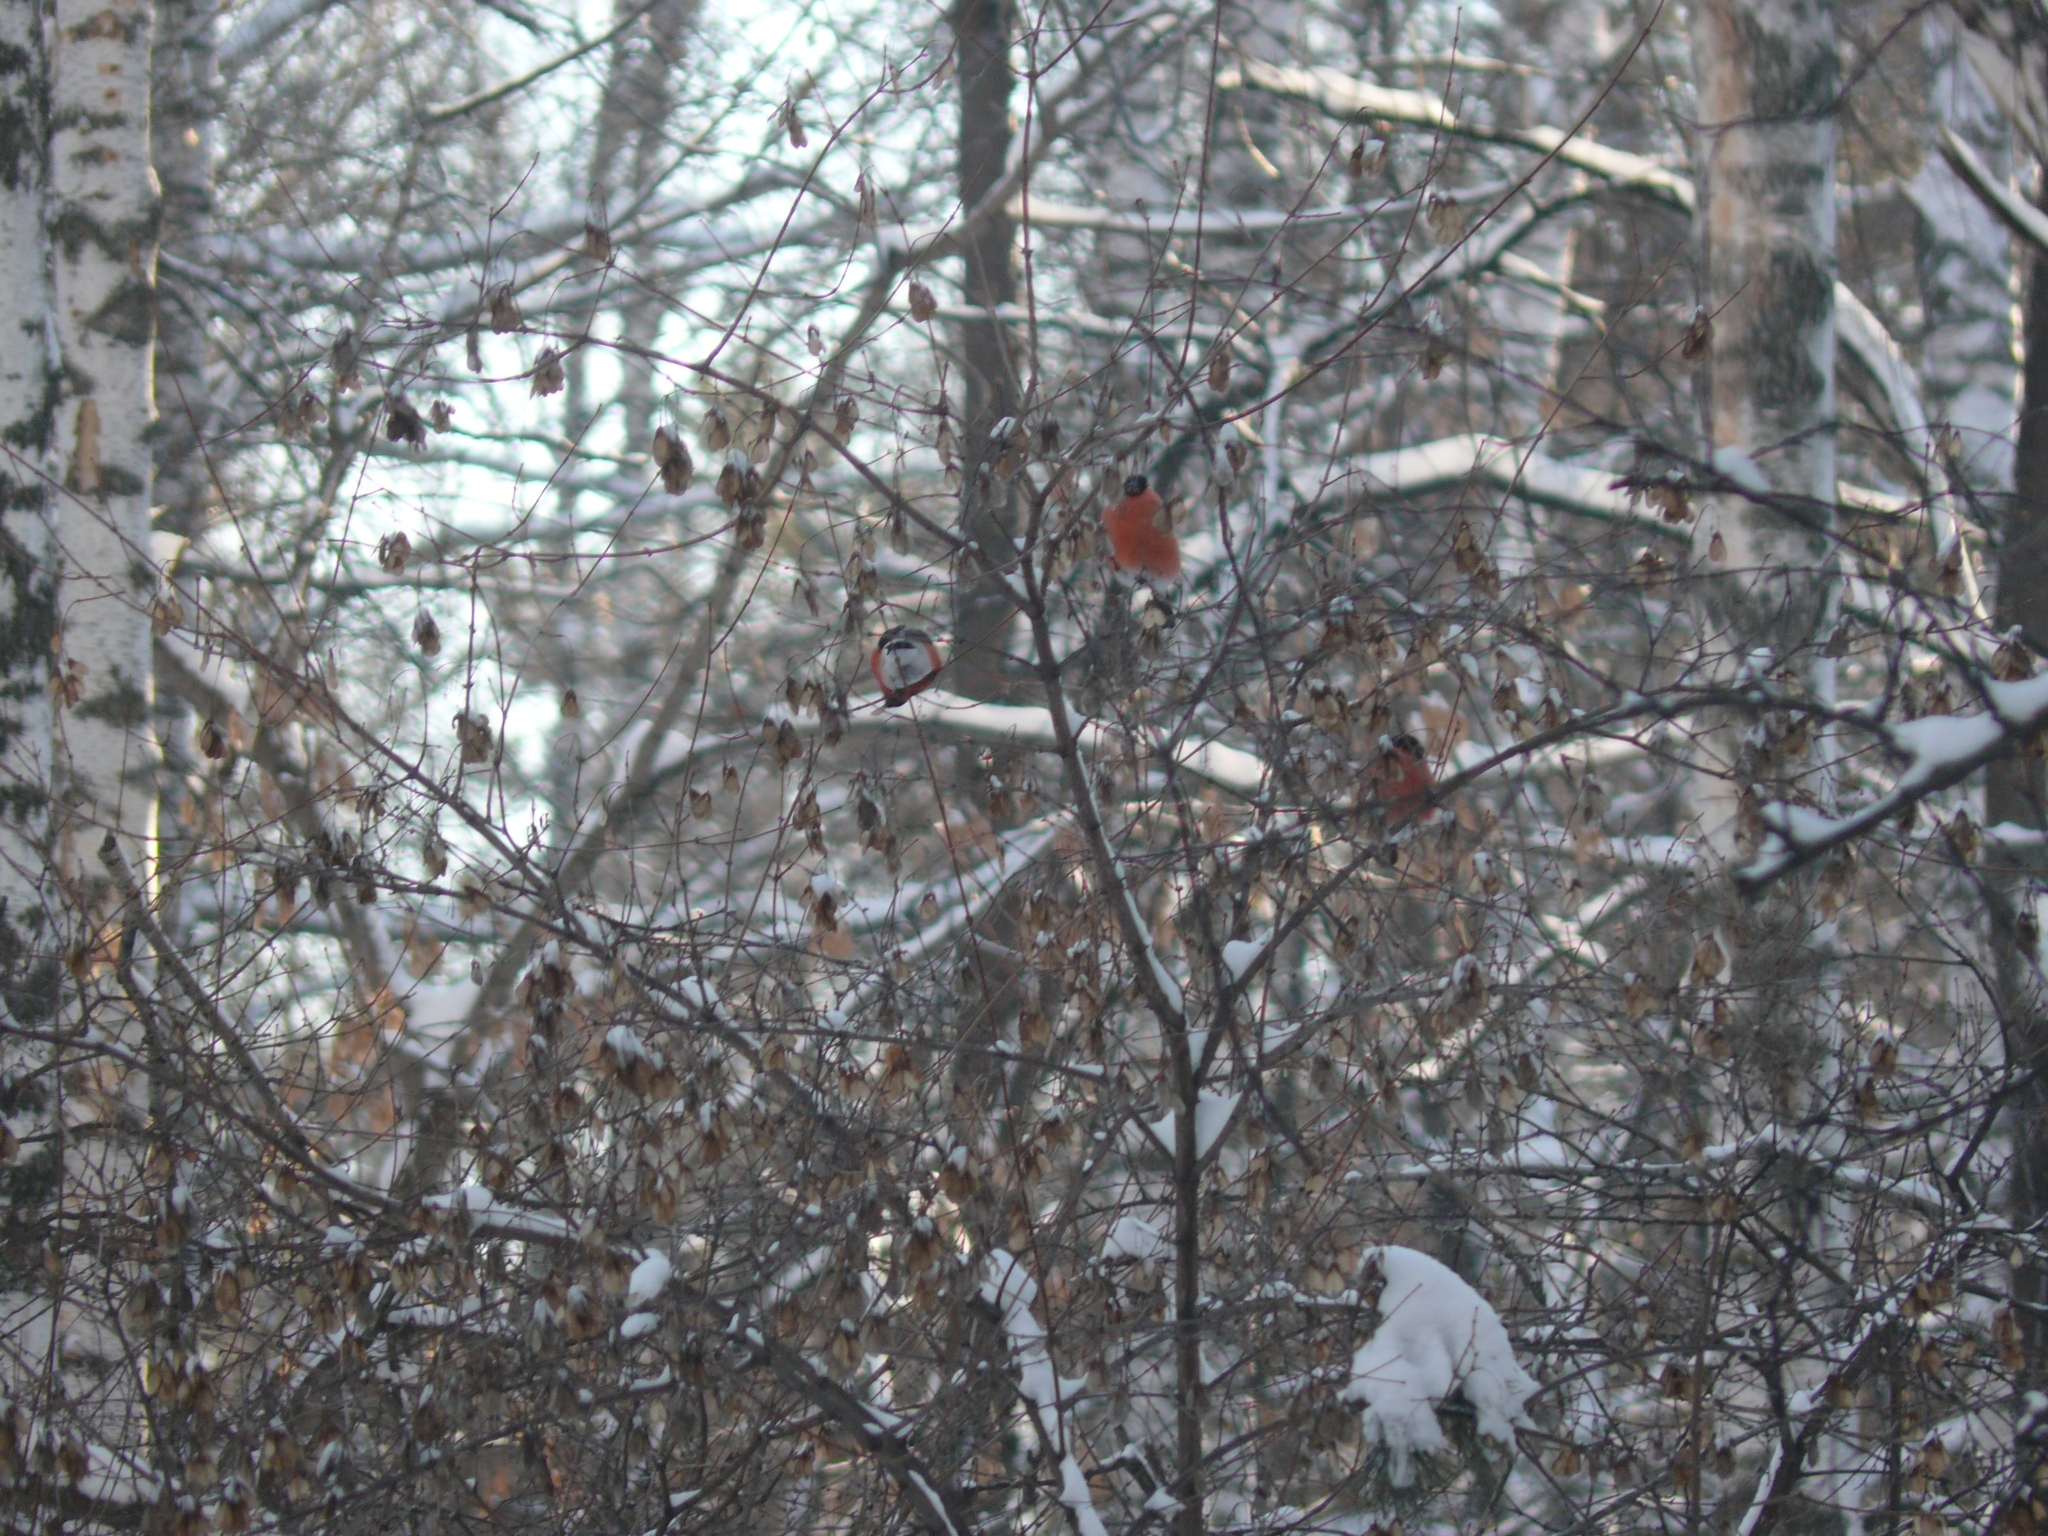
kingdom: Animalia
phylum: Chordata
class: Aves
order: Passeriformes
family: Fringillidae
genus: Pyrrhula
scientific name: Pyrrhula pyrrhula
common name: Eurasian bullfinch
